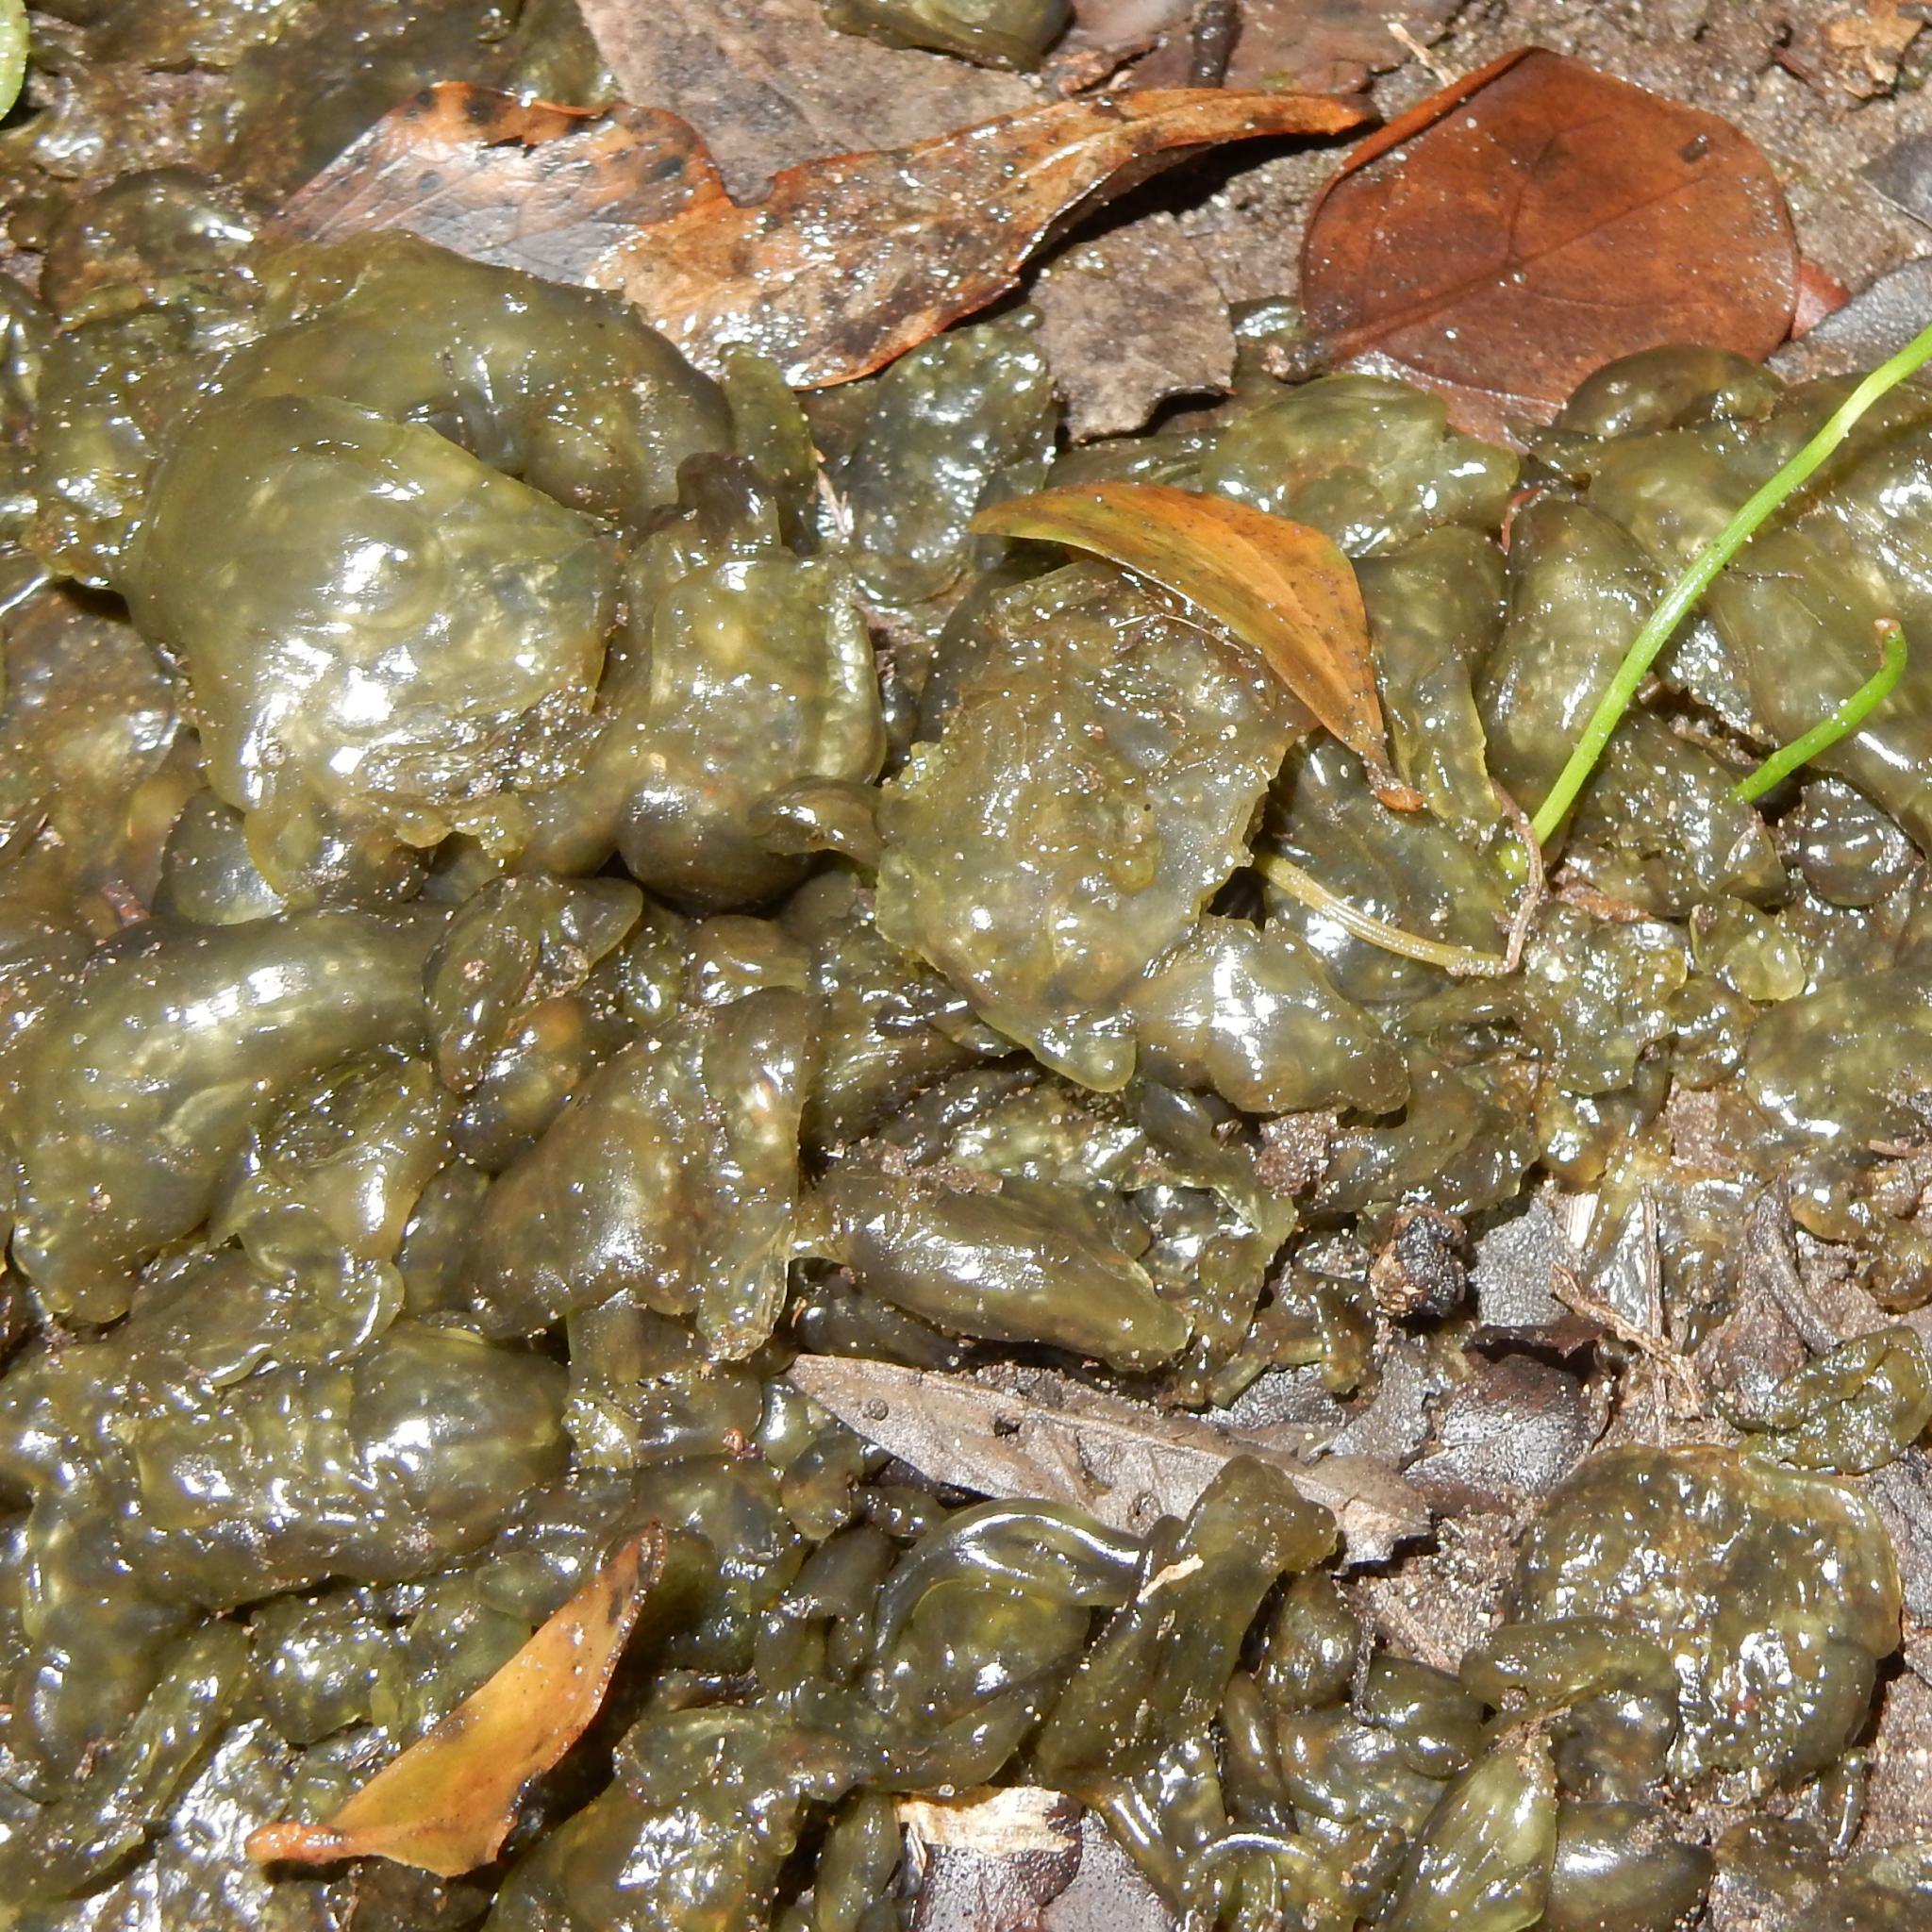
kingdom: Bacteria
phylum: Cyanobacteria
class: Cyanobacteriia
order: Cyanobacteriales
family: Nostocaceae
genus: Nostoc
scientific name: Nostoc commune
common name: Star jelly
